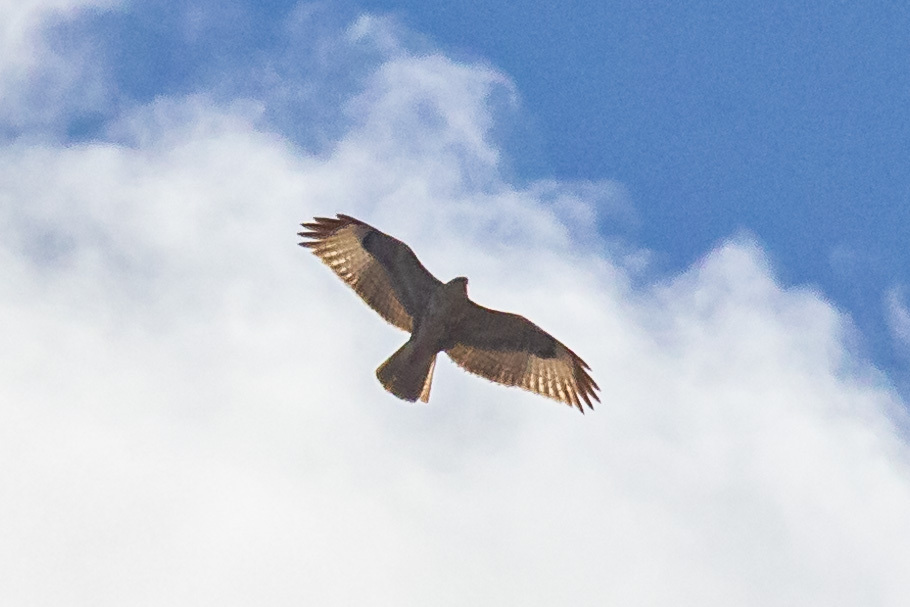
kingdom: Animalia
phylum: Chordata
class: Aves
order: Accipitriformes
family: Accipitridae
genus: Buteo
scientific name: Buteo buteo
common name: Common buzzard
